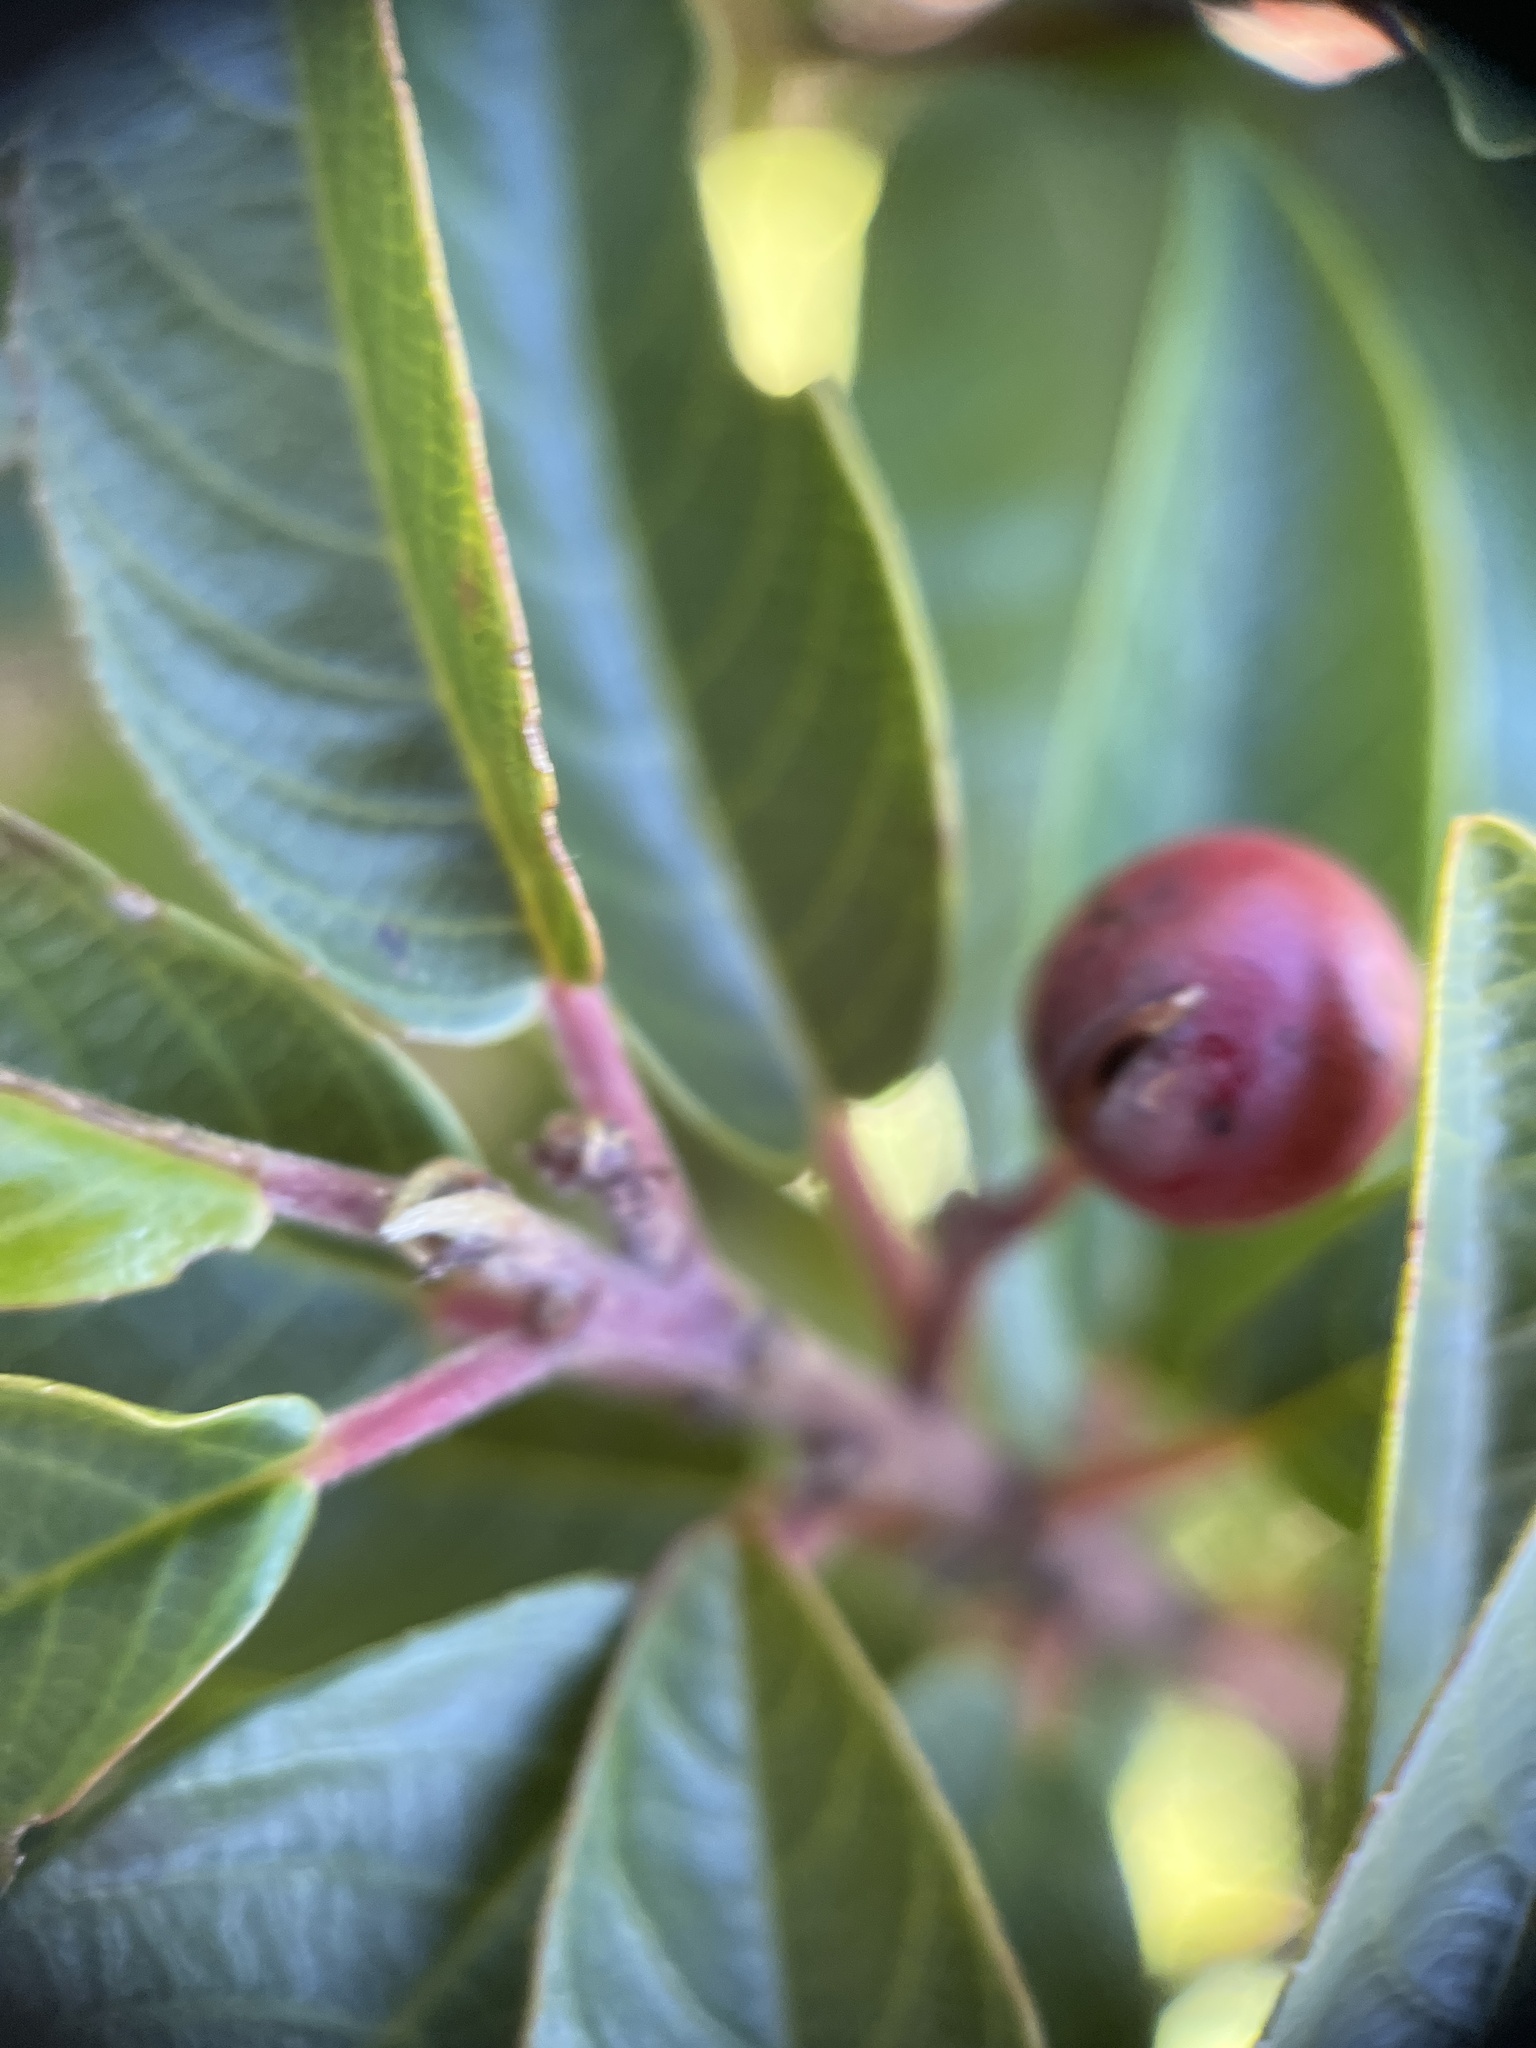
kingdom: Plantae
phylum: Tracheophyta
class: Magnoliopsida
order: Rosales
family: Rhamnaceae
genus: Frangula
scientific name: Frangula californica
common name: California buckthorn
